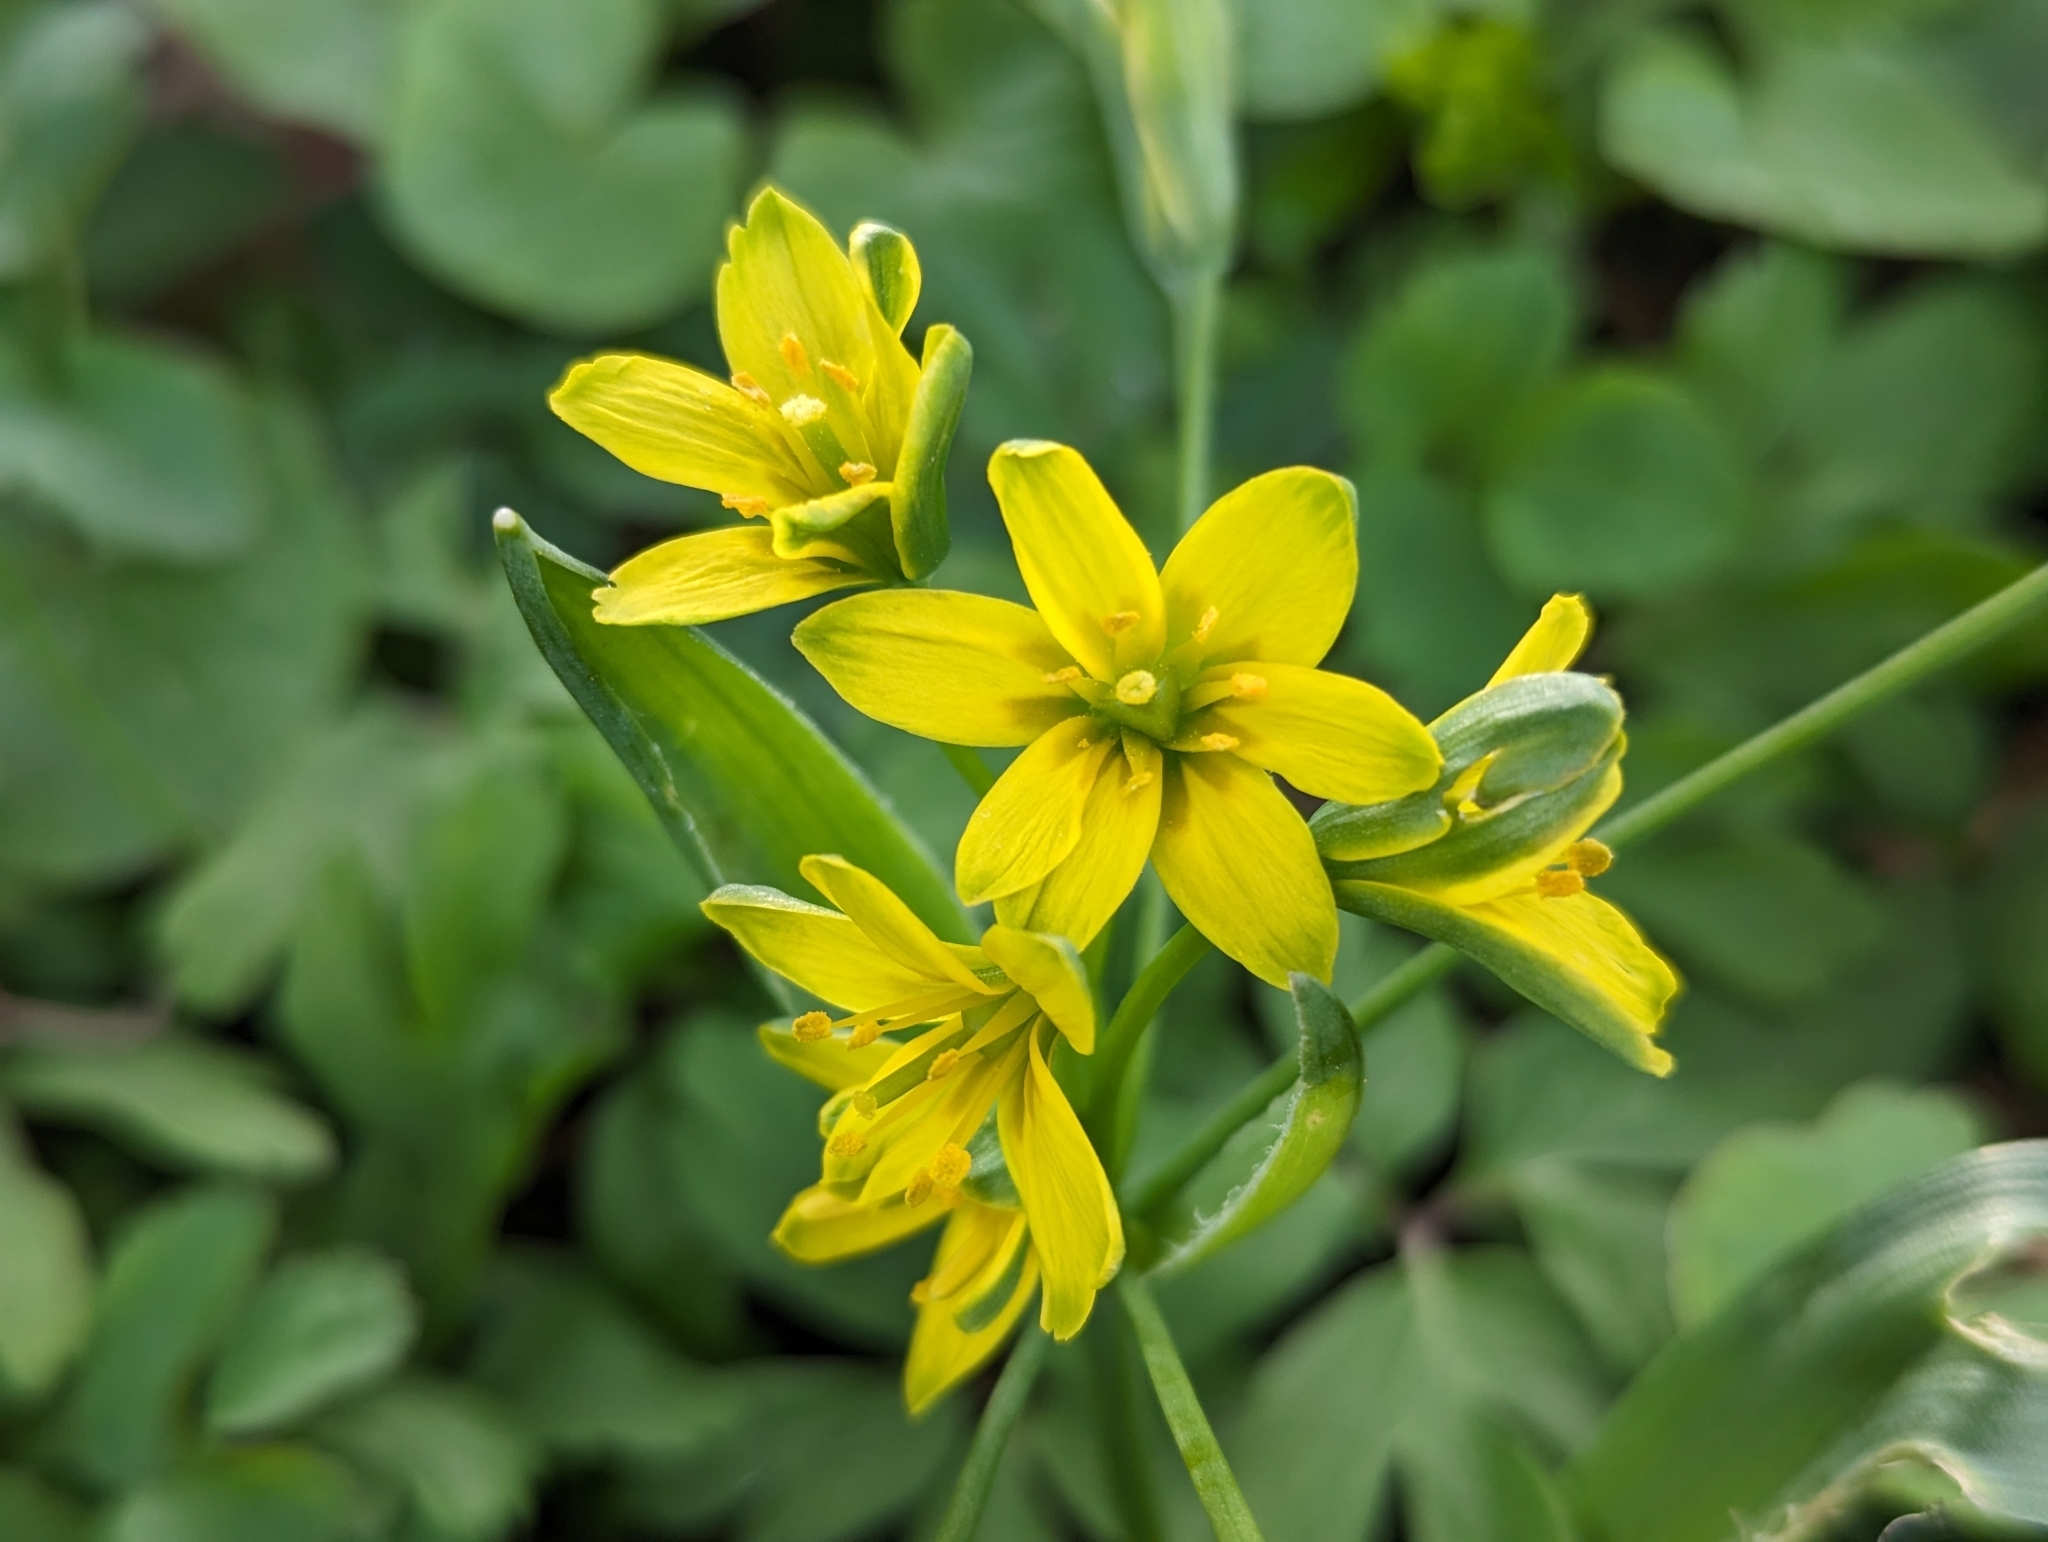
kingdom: Plantae
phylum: Tracheophyta
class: Liliopsida
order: Liliales
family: Liliaceae
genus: Gagea
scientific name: Gagea lutea
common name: Yellow star-of-bethlehem
